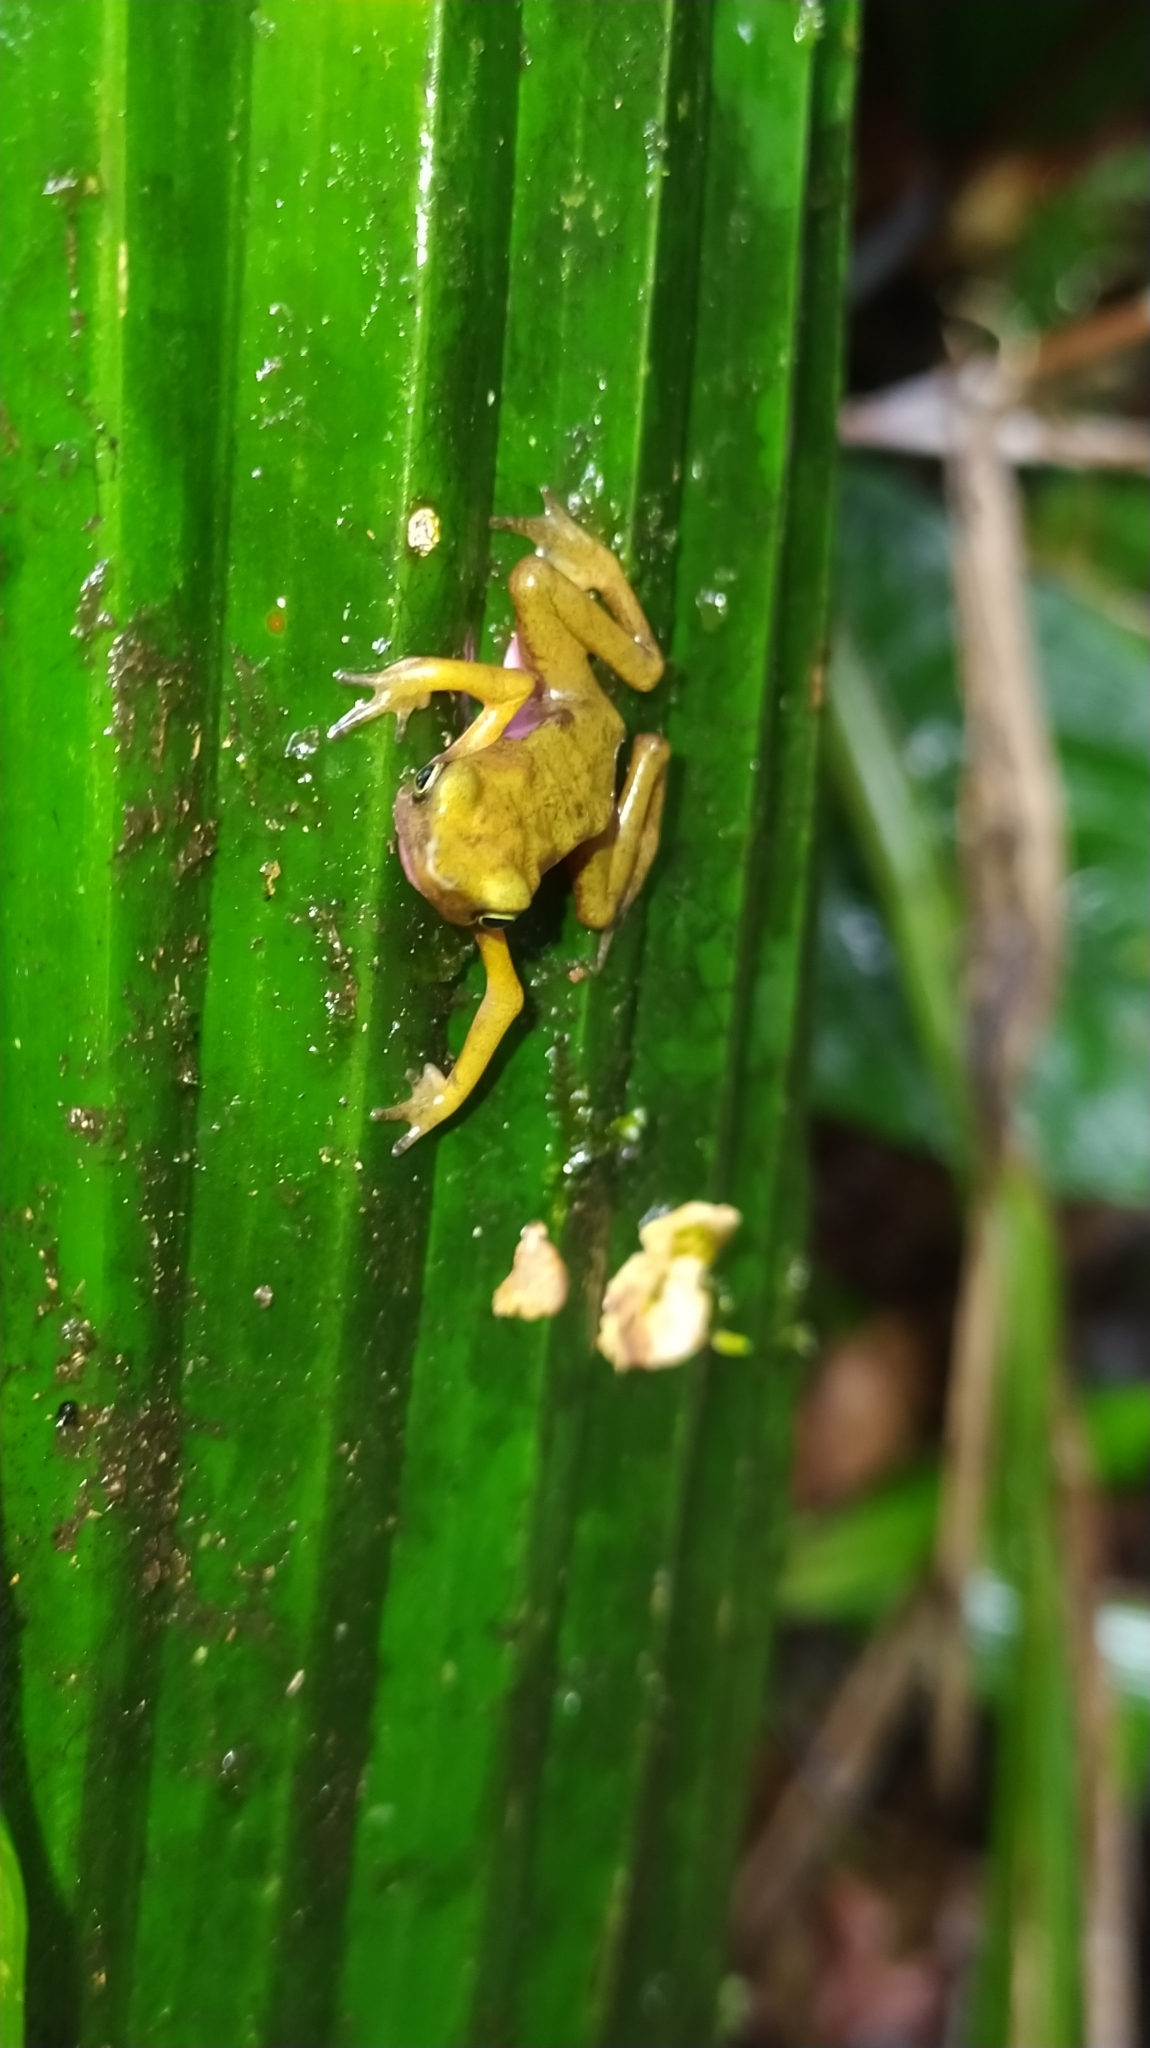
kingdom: Animalia
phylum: Chordata
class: Amphibia
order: Anura
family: Bufonidae
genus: Atelopus
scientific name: Atelopus flavescens
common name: Cayenne stubfoot toad
